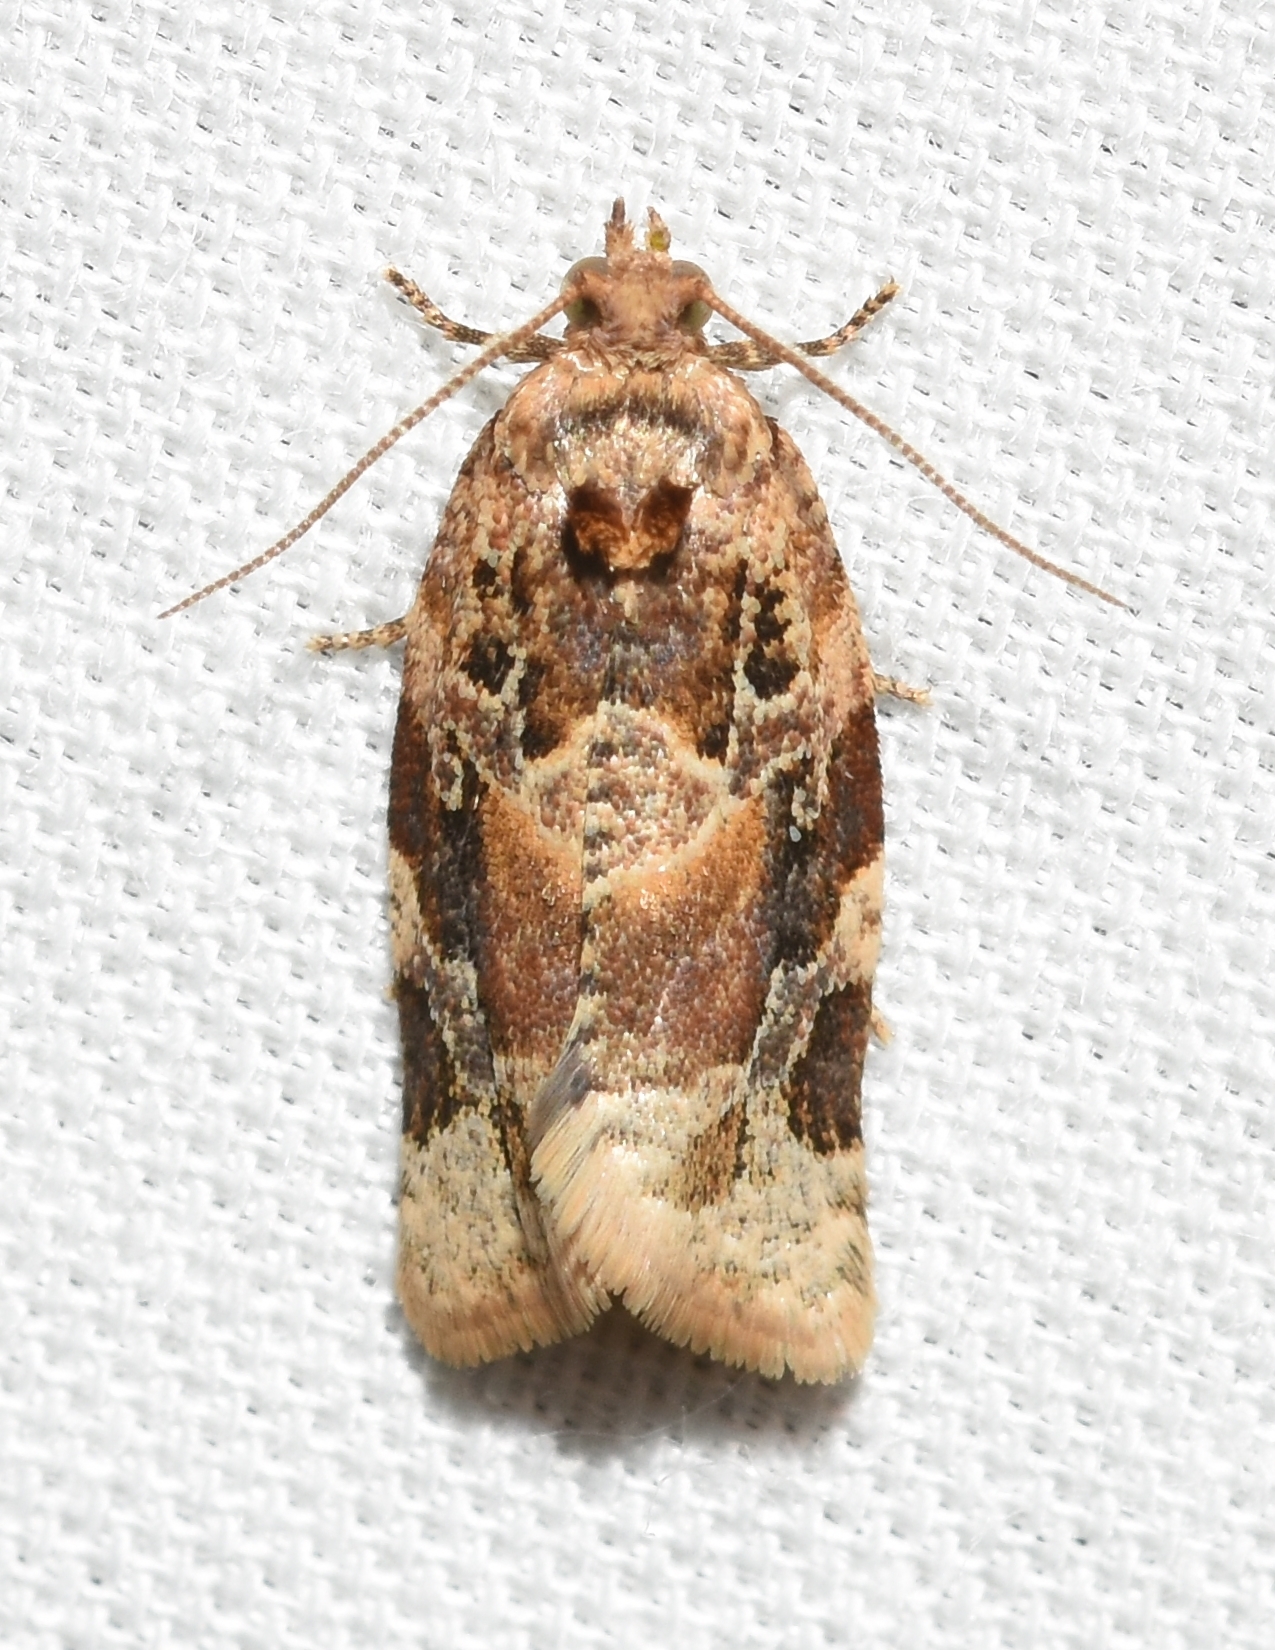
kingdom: Animalia
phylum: Arthropoda
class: Insecta
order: Lepidoptera
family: Tortricidae
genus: Argyrotaenia
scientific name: Argyrotaenia velutinana
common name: Red-banded leafroller moth
